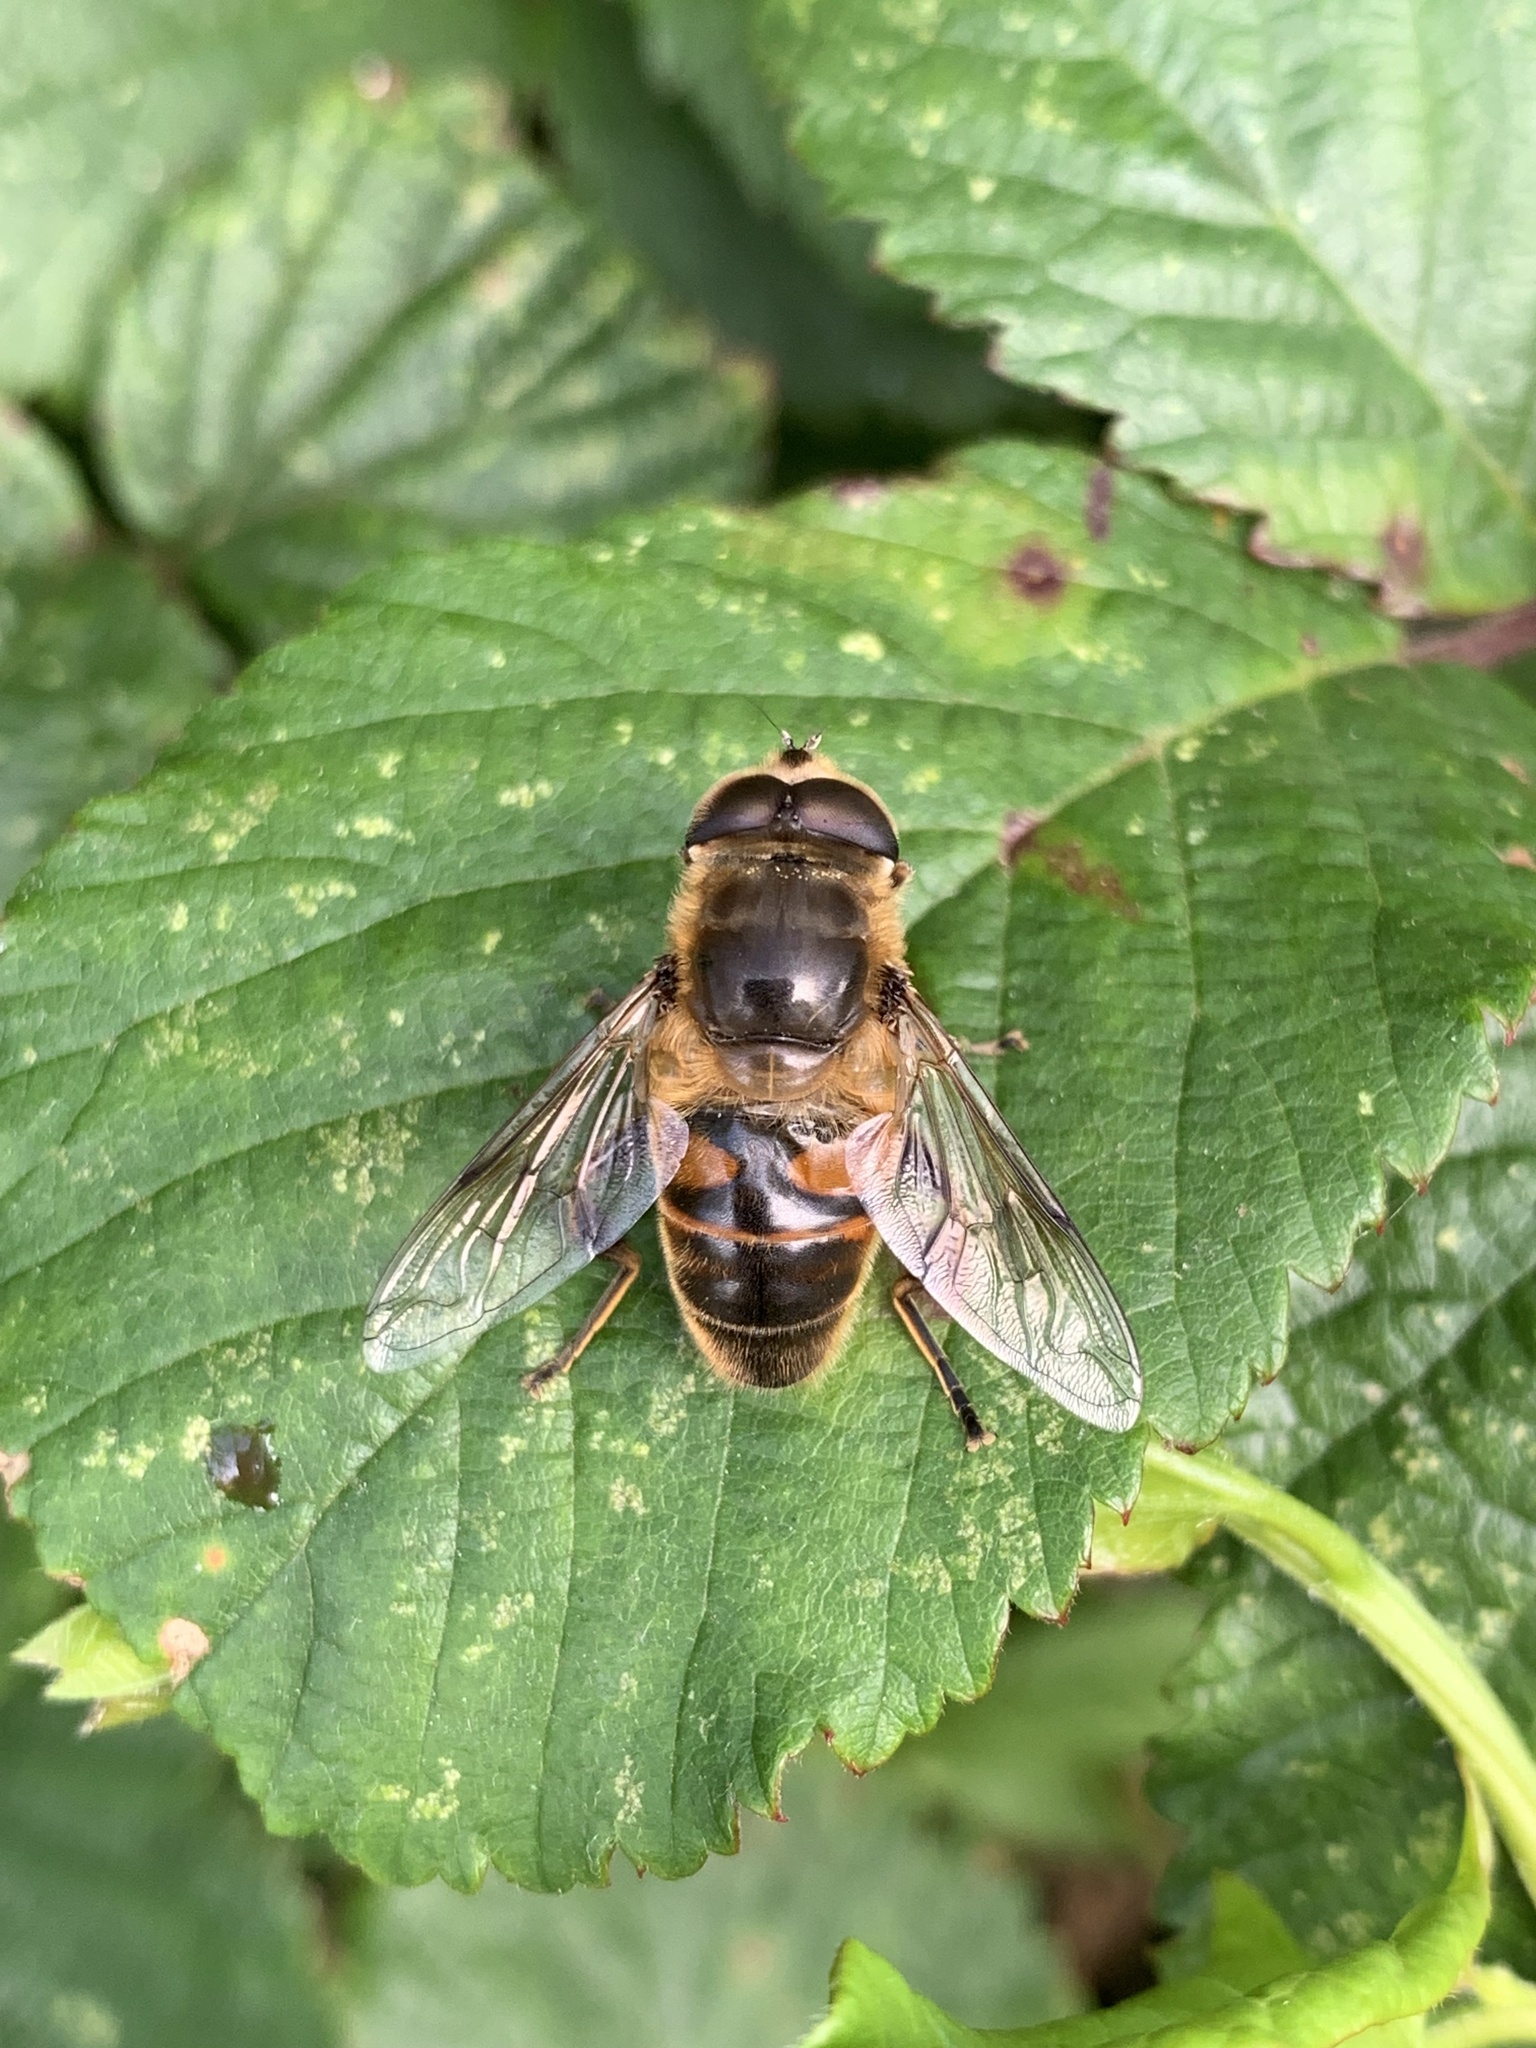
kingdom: Animalia
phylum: Arthropoda
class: Insecta
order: Diptera
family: Syrphidae
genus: Eristalis
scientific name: Eristalis tenax
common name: Drone fly
